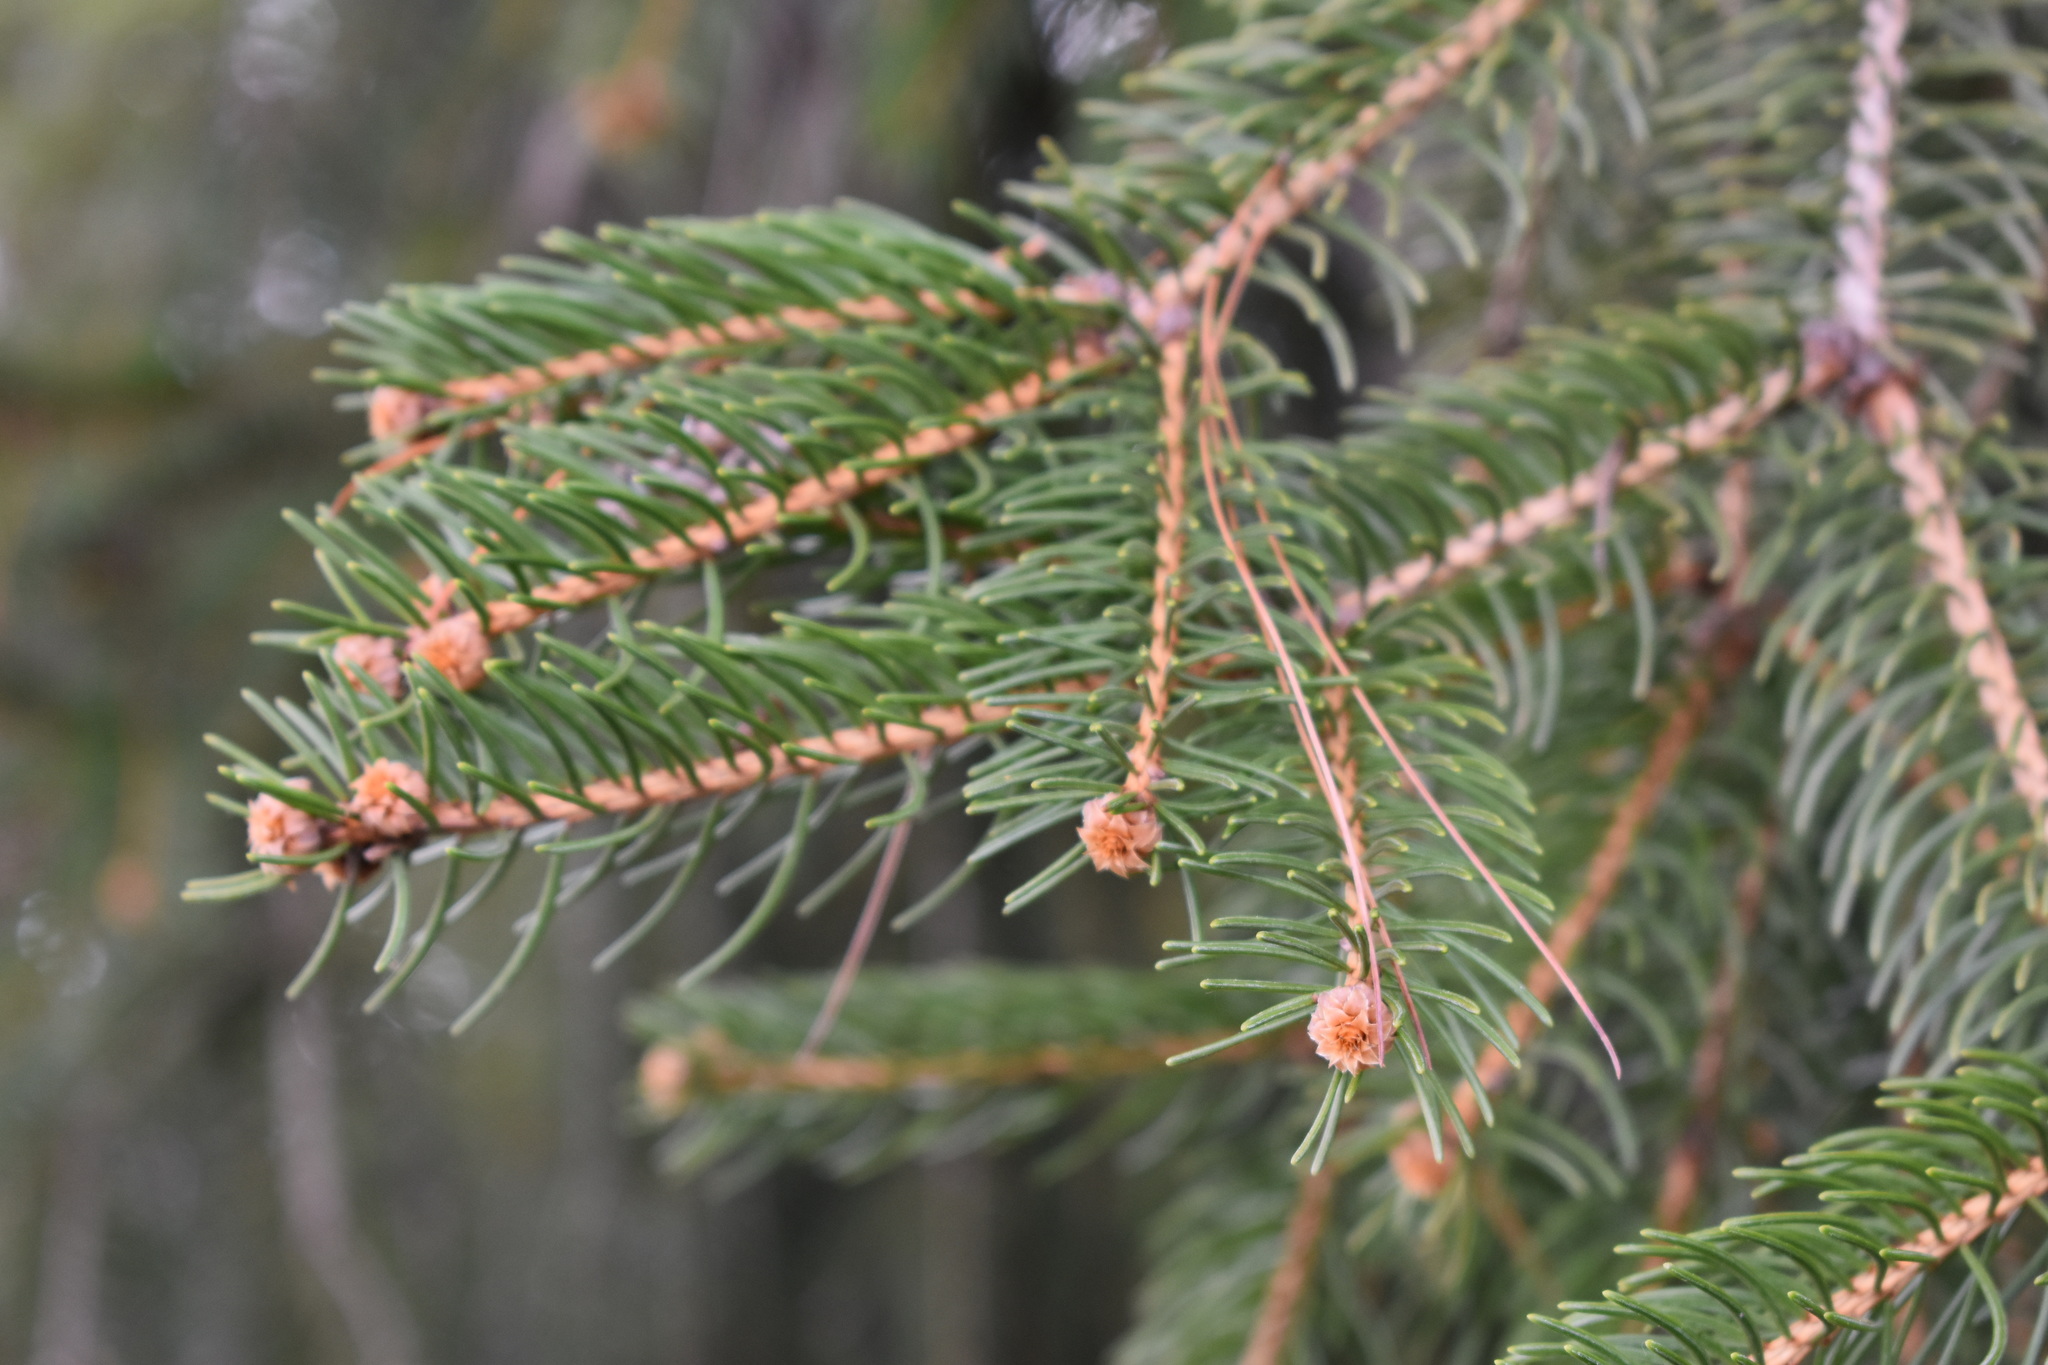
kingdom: Plantae
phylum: Tracheophyta
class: Pinopsida
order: Pinales
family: Pinaceae
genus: Picea
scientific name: Picea abies
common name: Norway spruce
